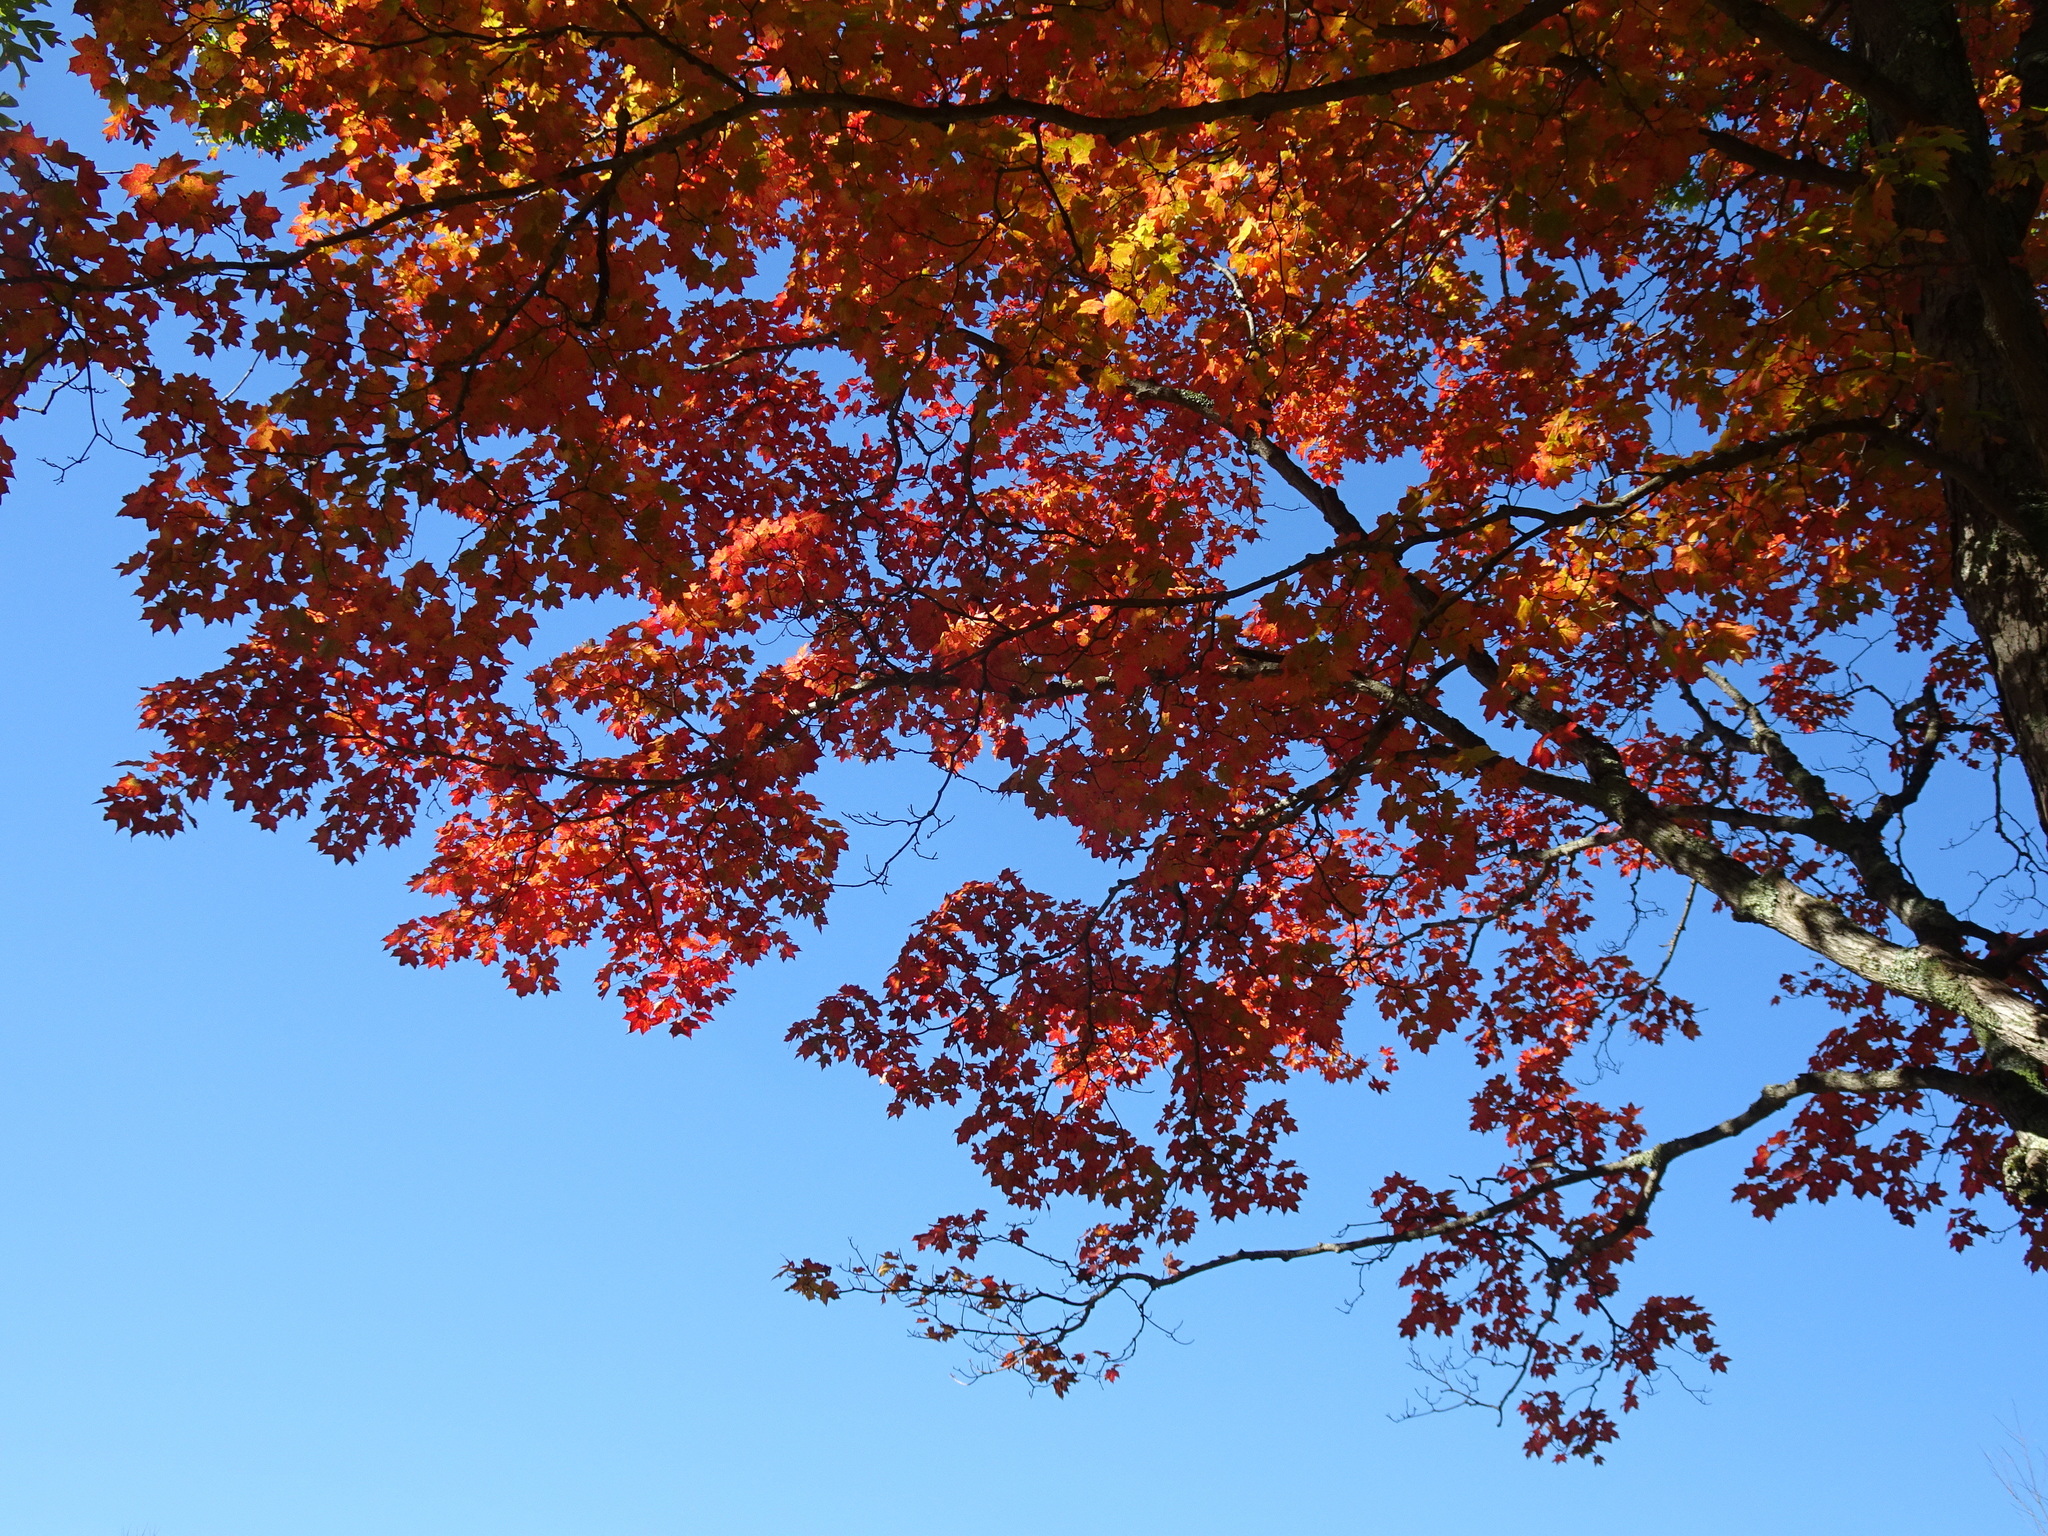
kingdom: Plantae
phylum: Tracheophyta
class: Magnoliopsida
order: Sapindales
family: Sapindaceae
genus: Acer
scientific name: Acer saccharum
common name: Sugar maple
